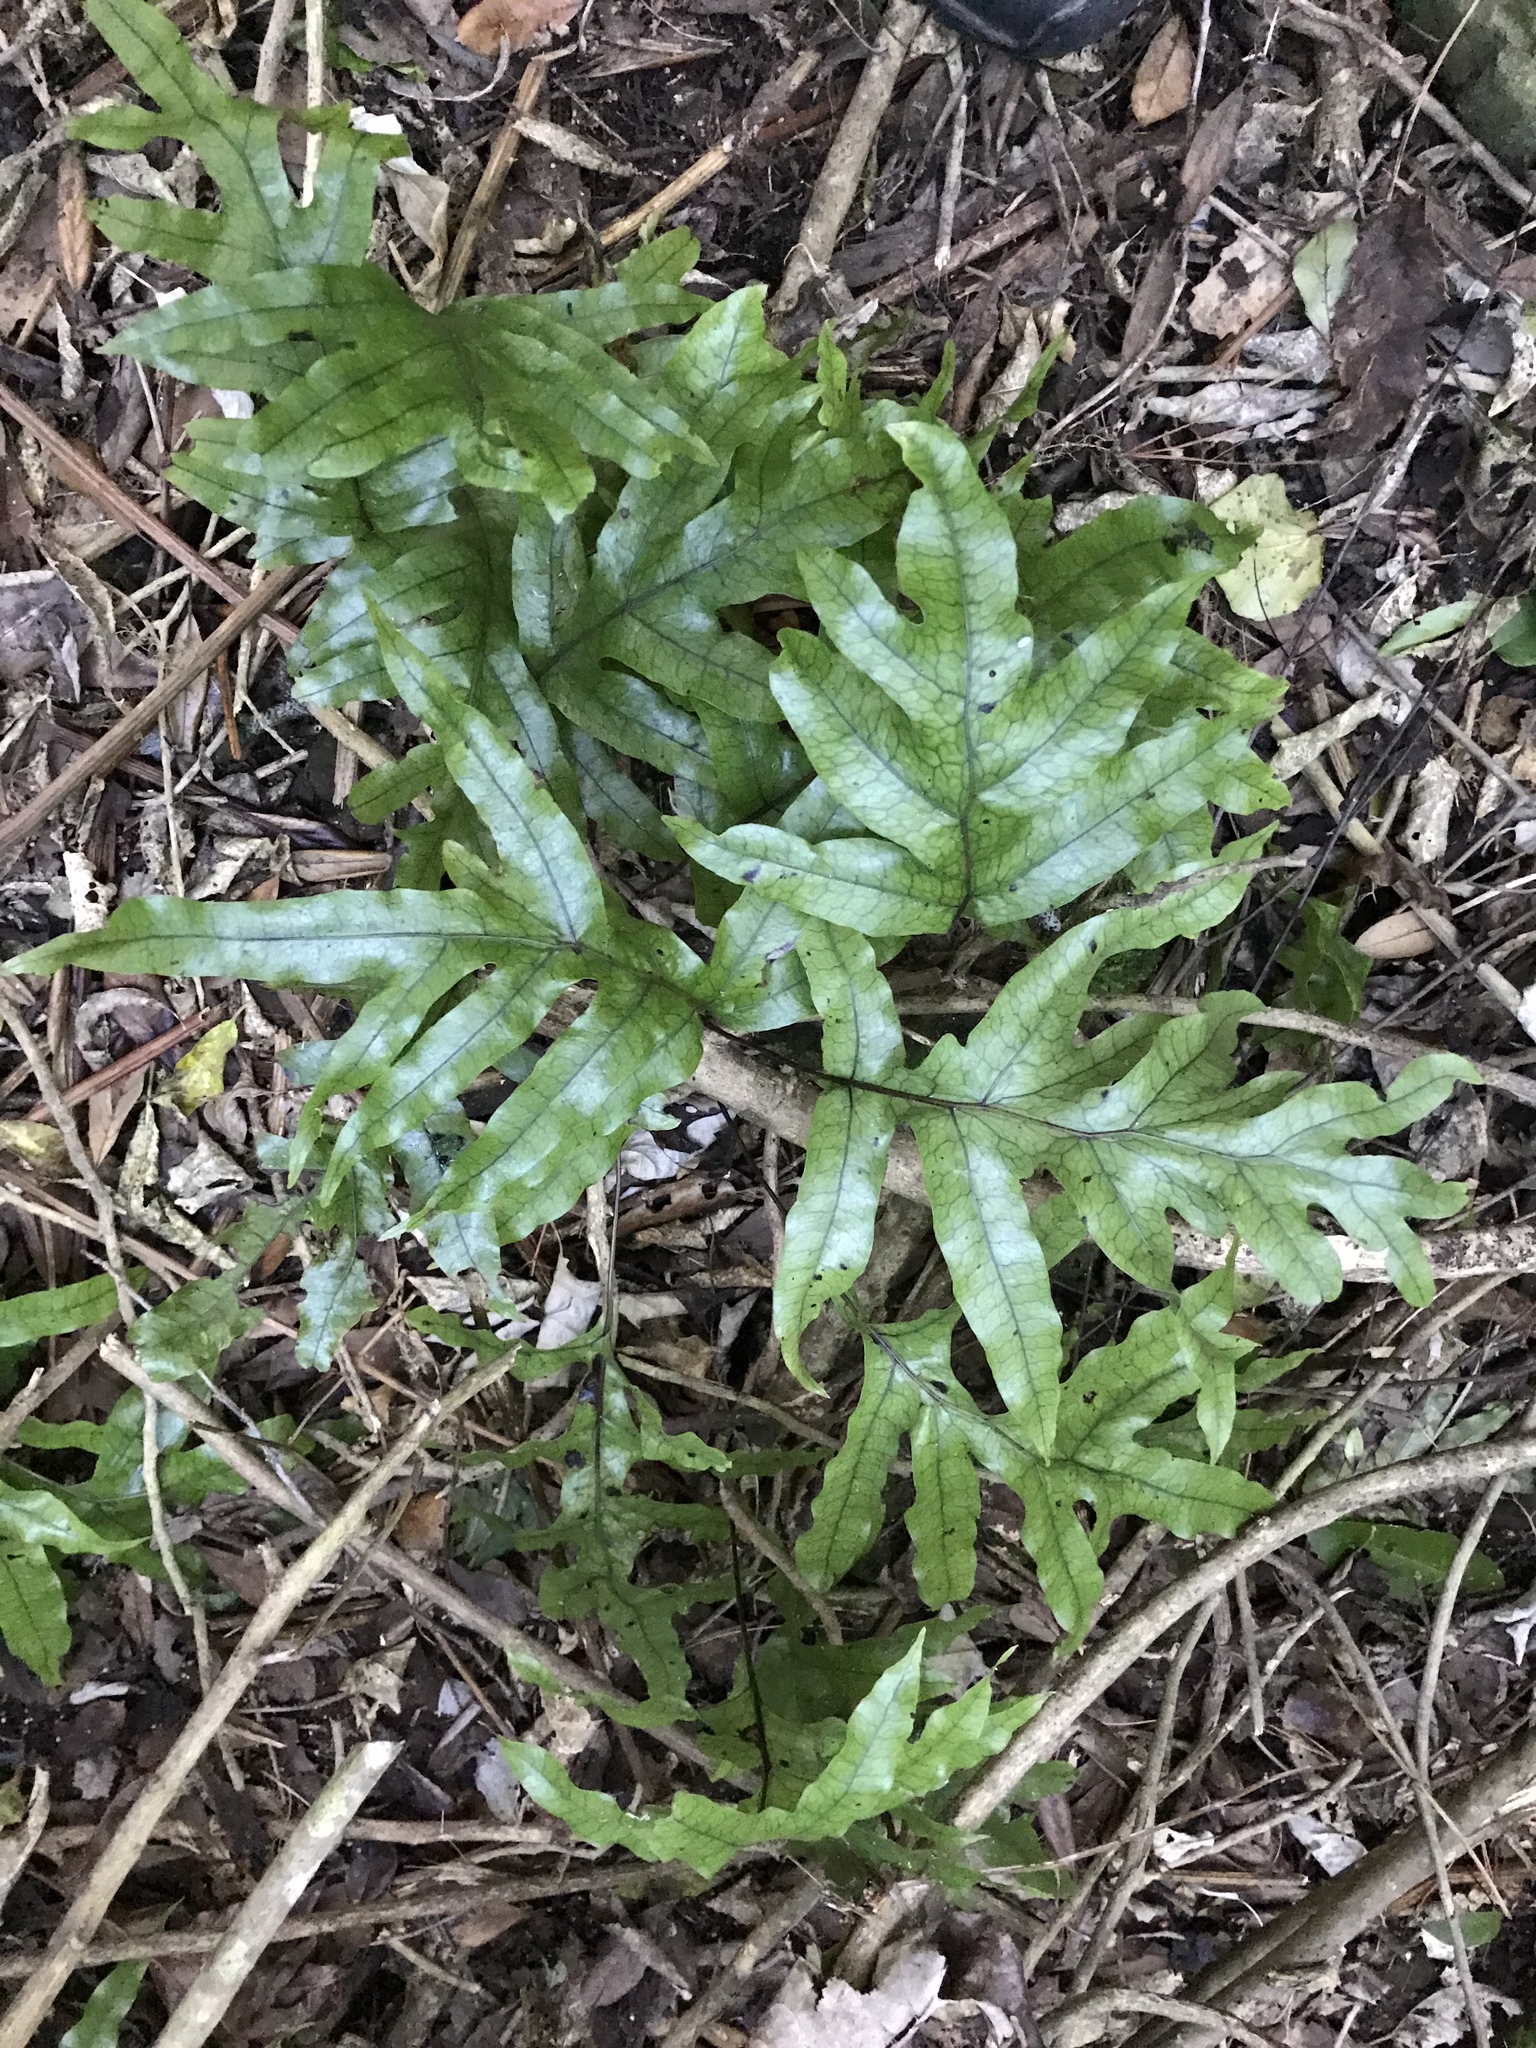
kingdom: Plantae
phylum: Tracheophyta
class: Polypodiopsida
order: Polypodiales
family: Polypodiaceae
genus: Lecanopteris
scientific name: Lecanopteris pustulata
